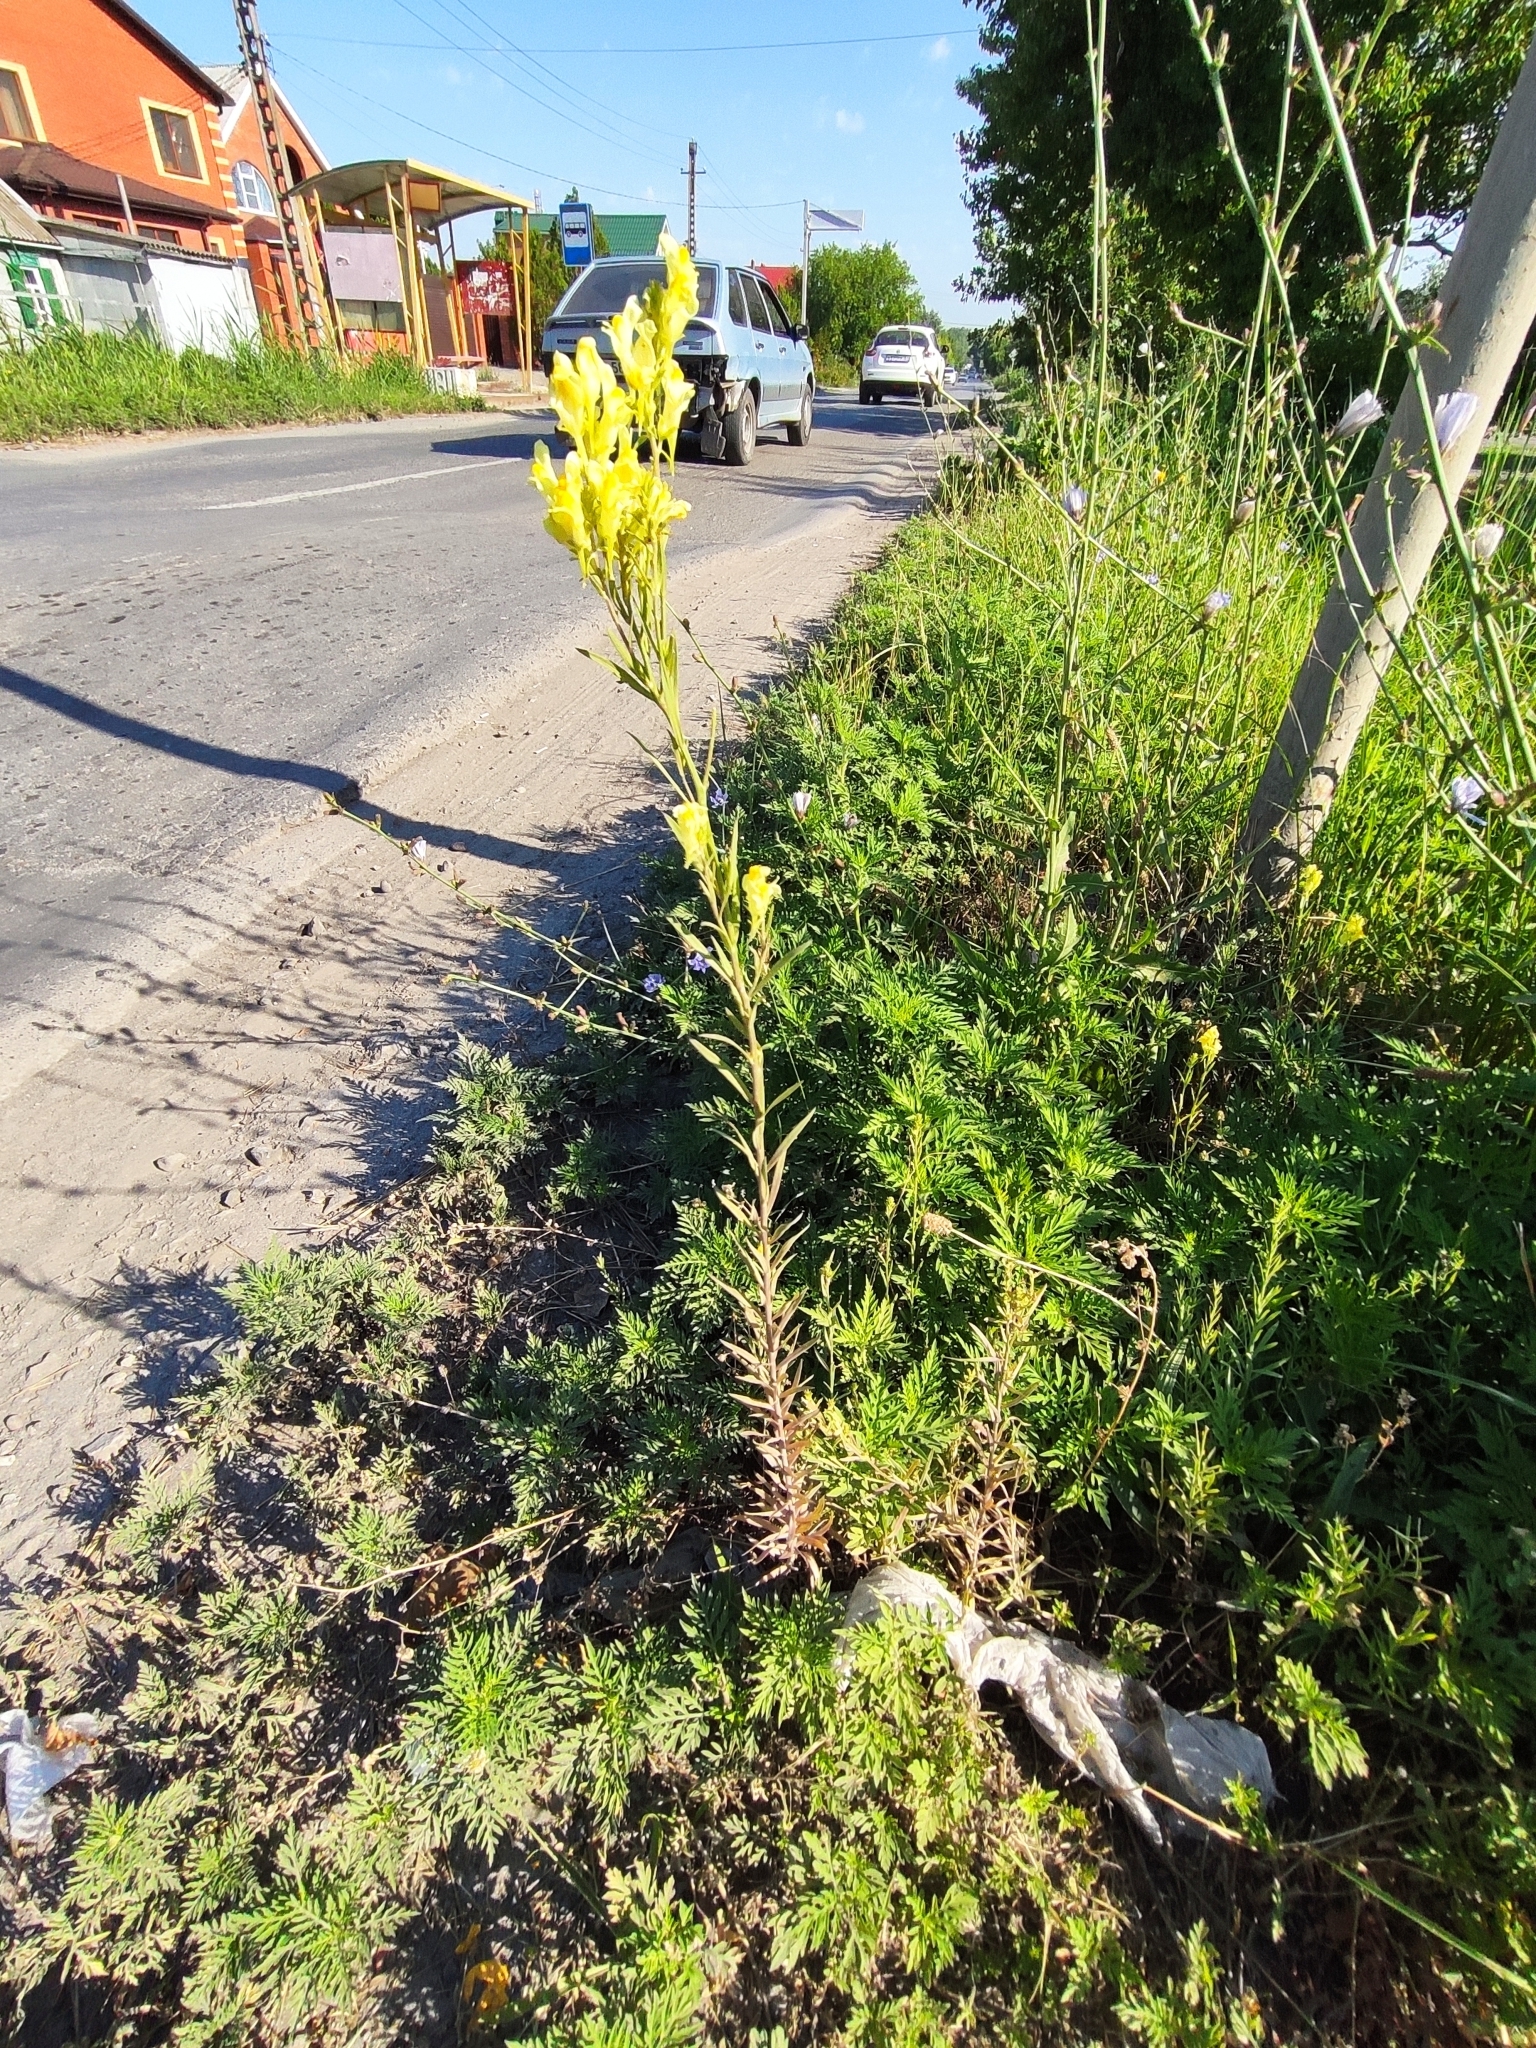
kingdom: Plantae
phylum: Tracheophyta
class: Magnoliopsida
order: Lamiales
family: Plantaginaceae
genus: Linaria
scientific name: Linaria vulgaris
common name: Butter and eggs
